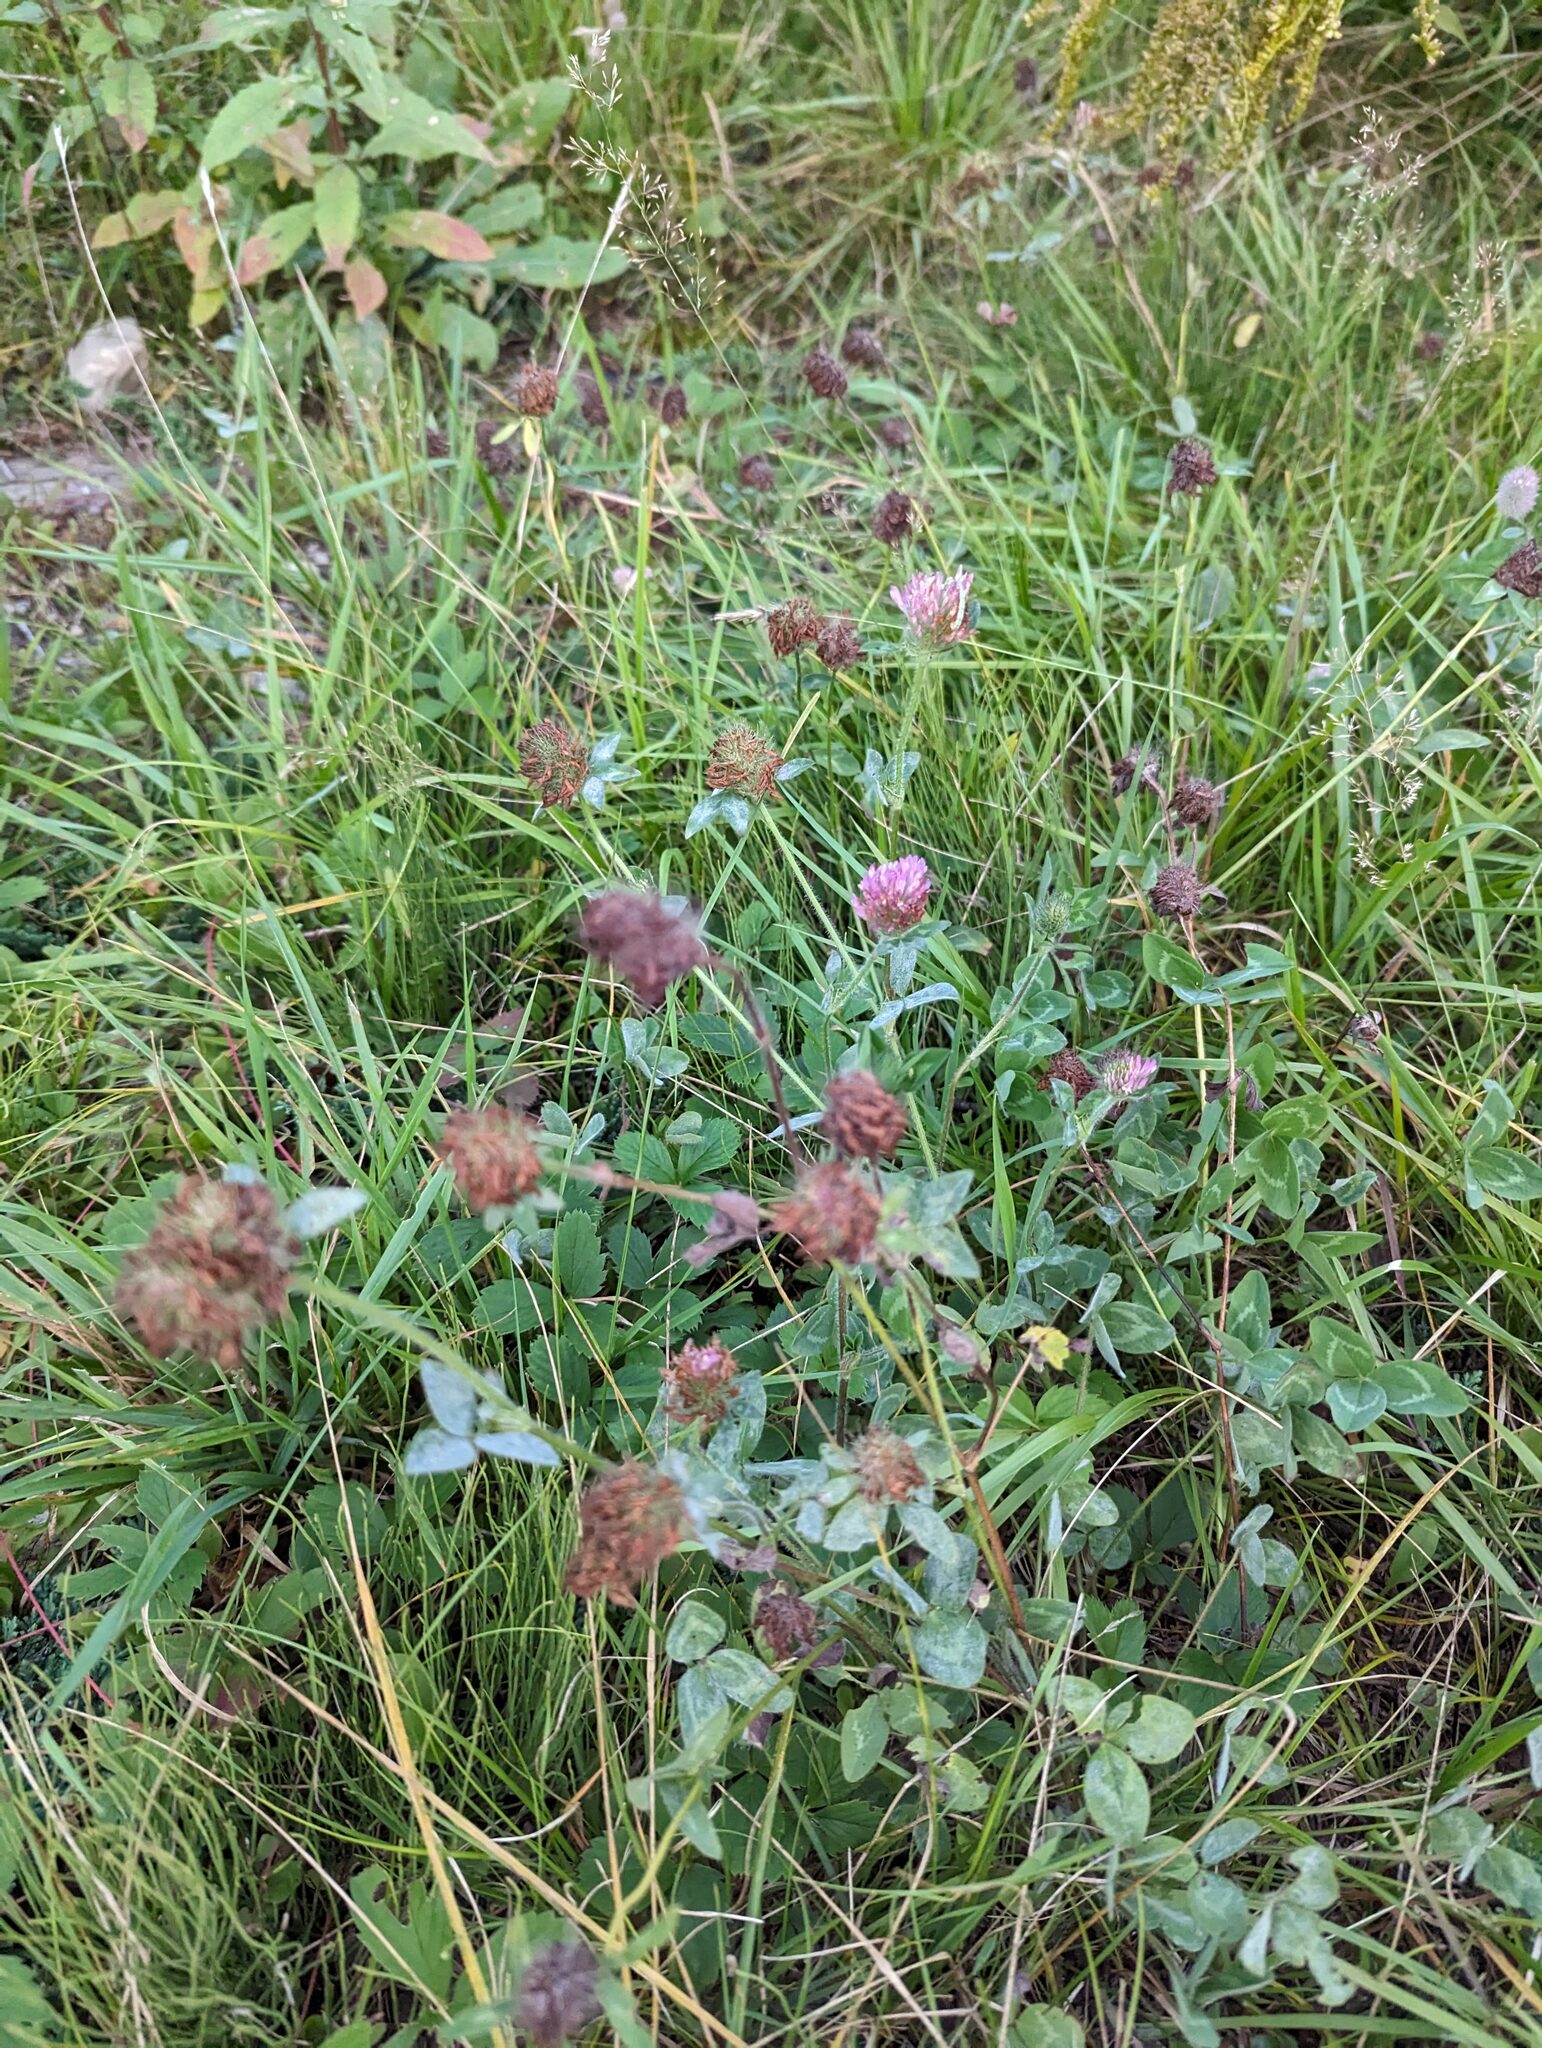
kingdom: Plantae
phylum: Tracheophyta
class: Magnoliopsida
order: Fabales
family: Fabaceae
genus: Trifolium
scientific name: Trifolium pratense
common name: Red clover
